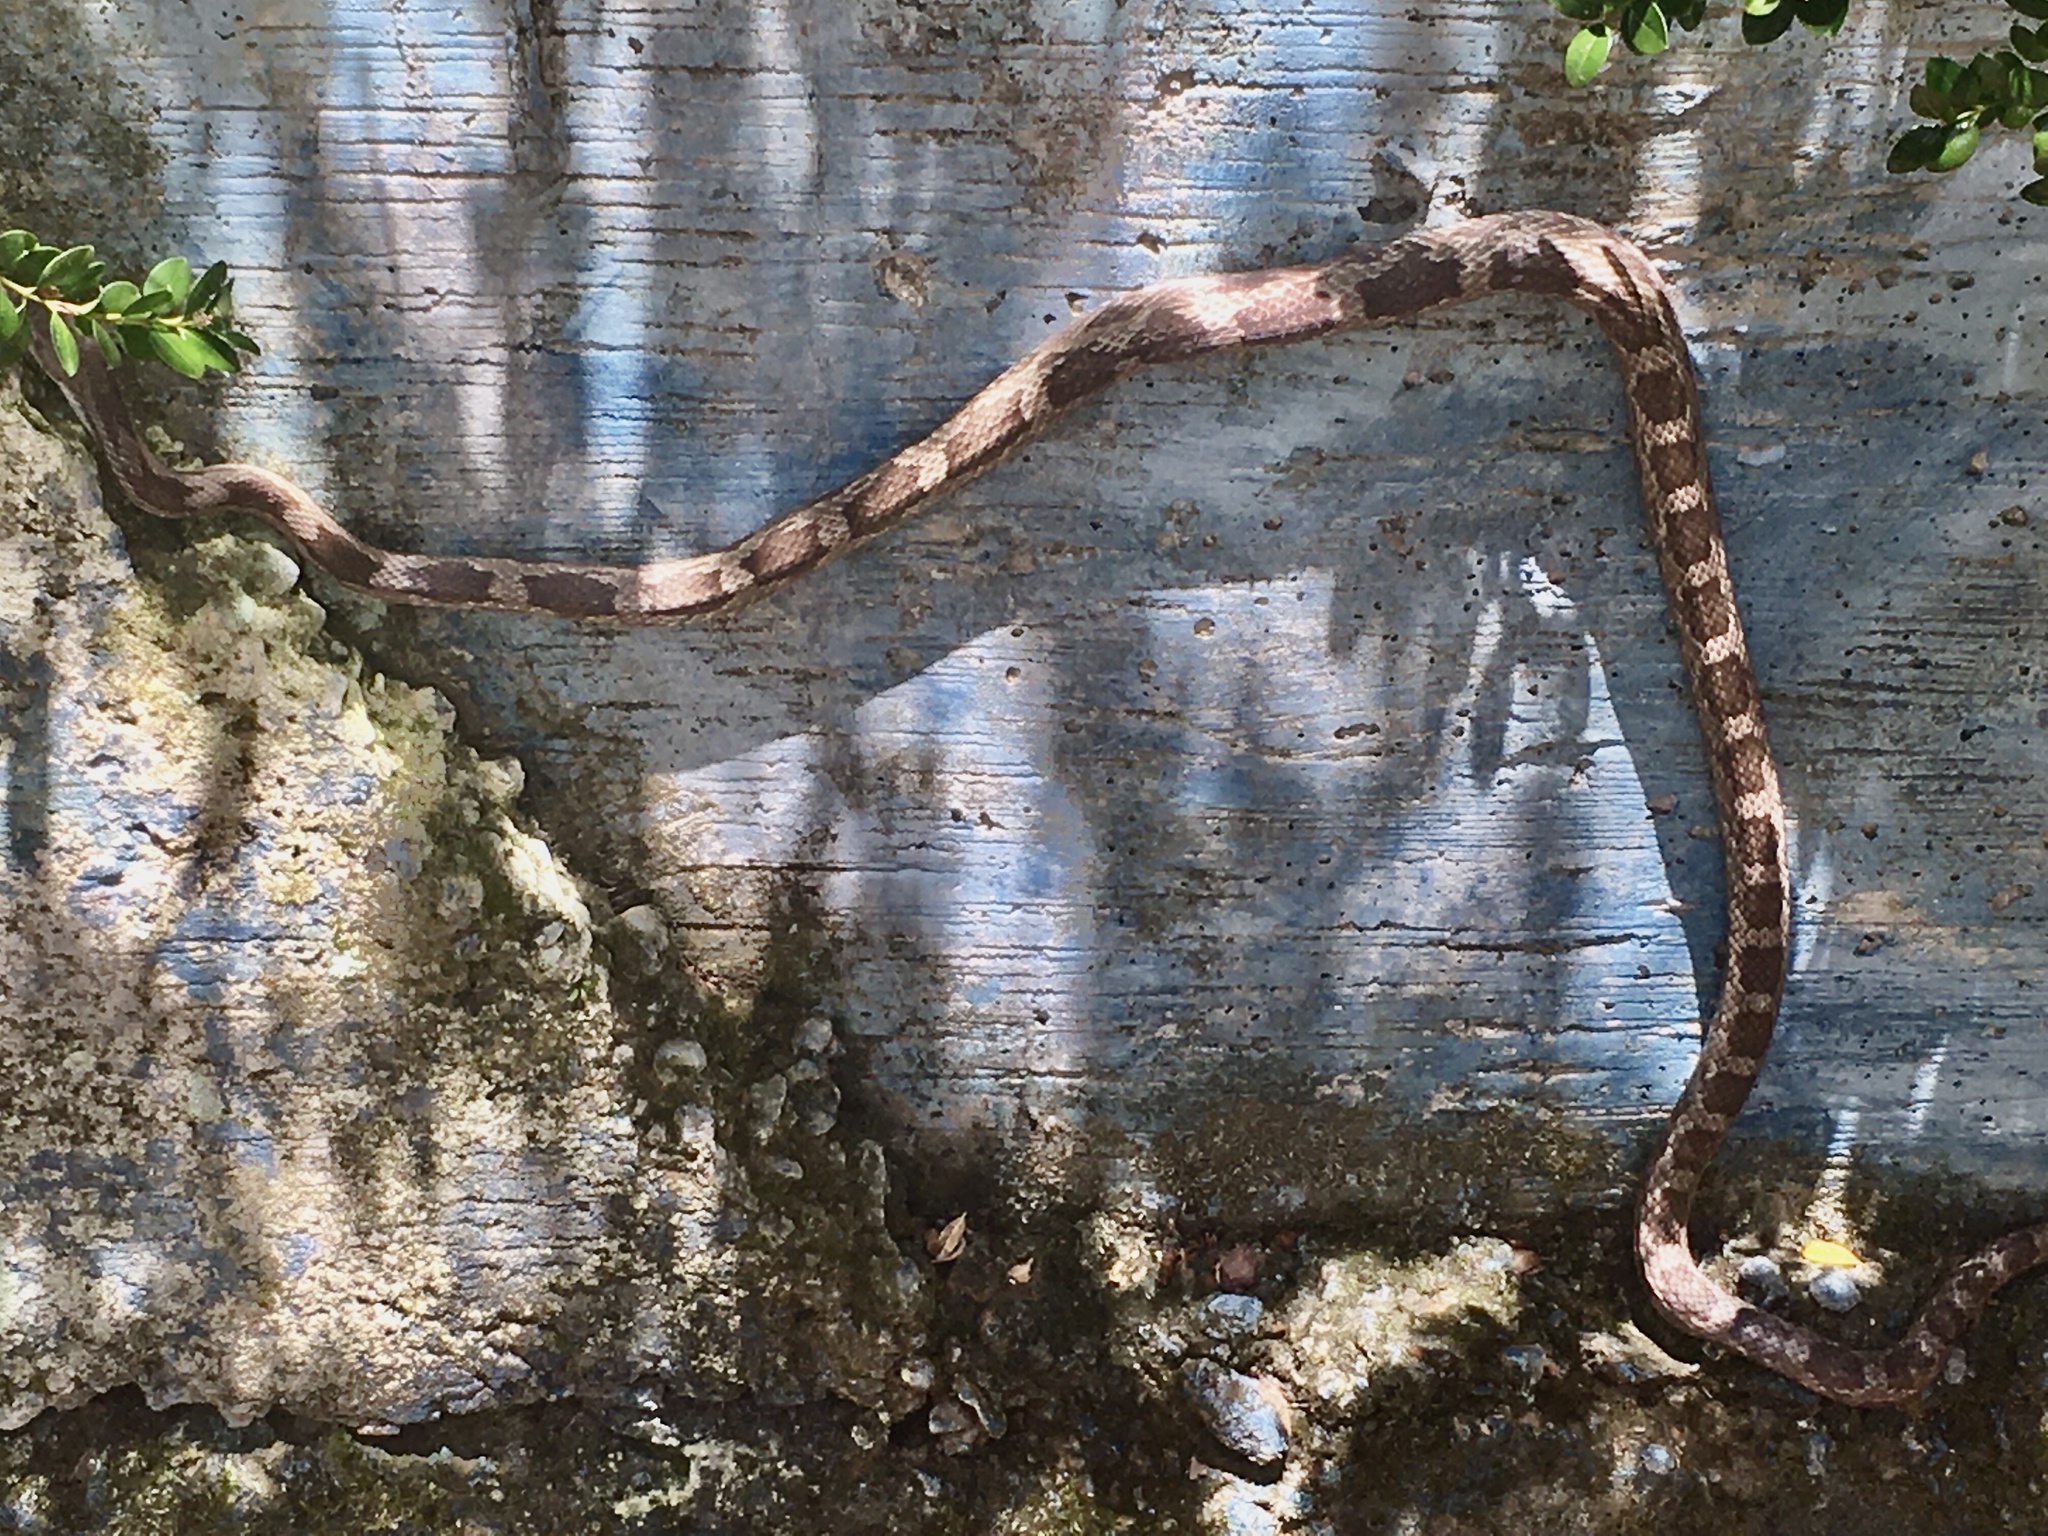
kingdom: Animalia
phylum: Chordata
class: Squamata
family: Colubridae
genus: Pantherophis
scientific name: Pantherophis spiloides
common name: Gray rat snake
